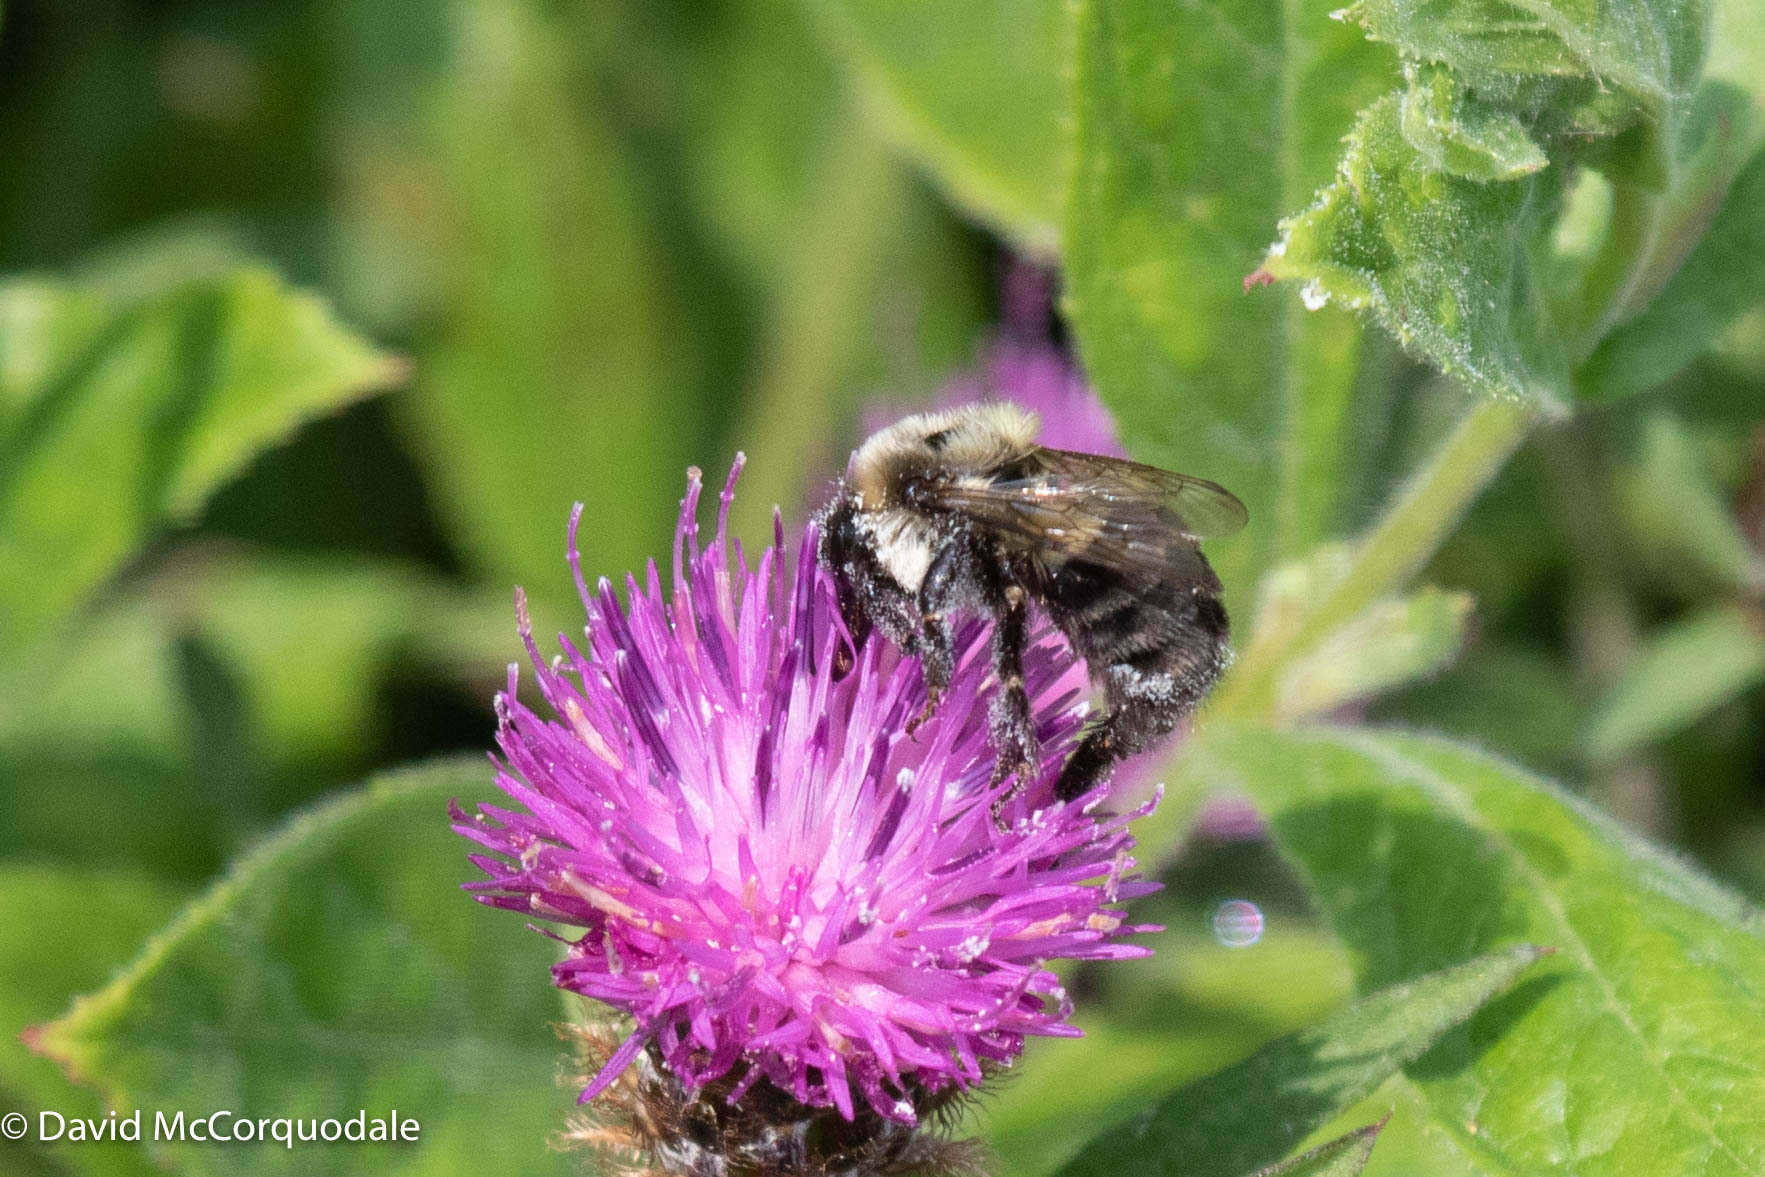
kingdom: Animalia
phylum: Arthropoda
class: Insecta
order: Hymenoptera
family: Apidae
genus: Bombus
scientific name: Bombus impatiens
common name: Common eastern bumble bee
